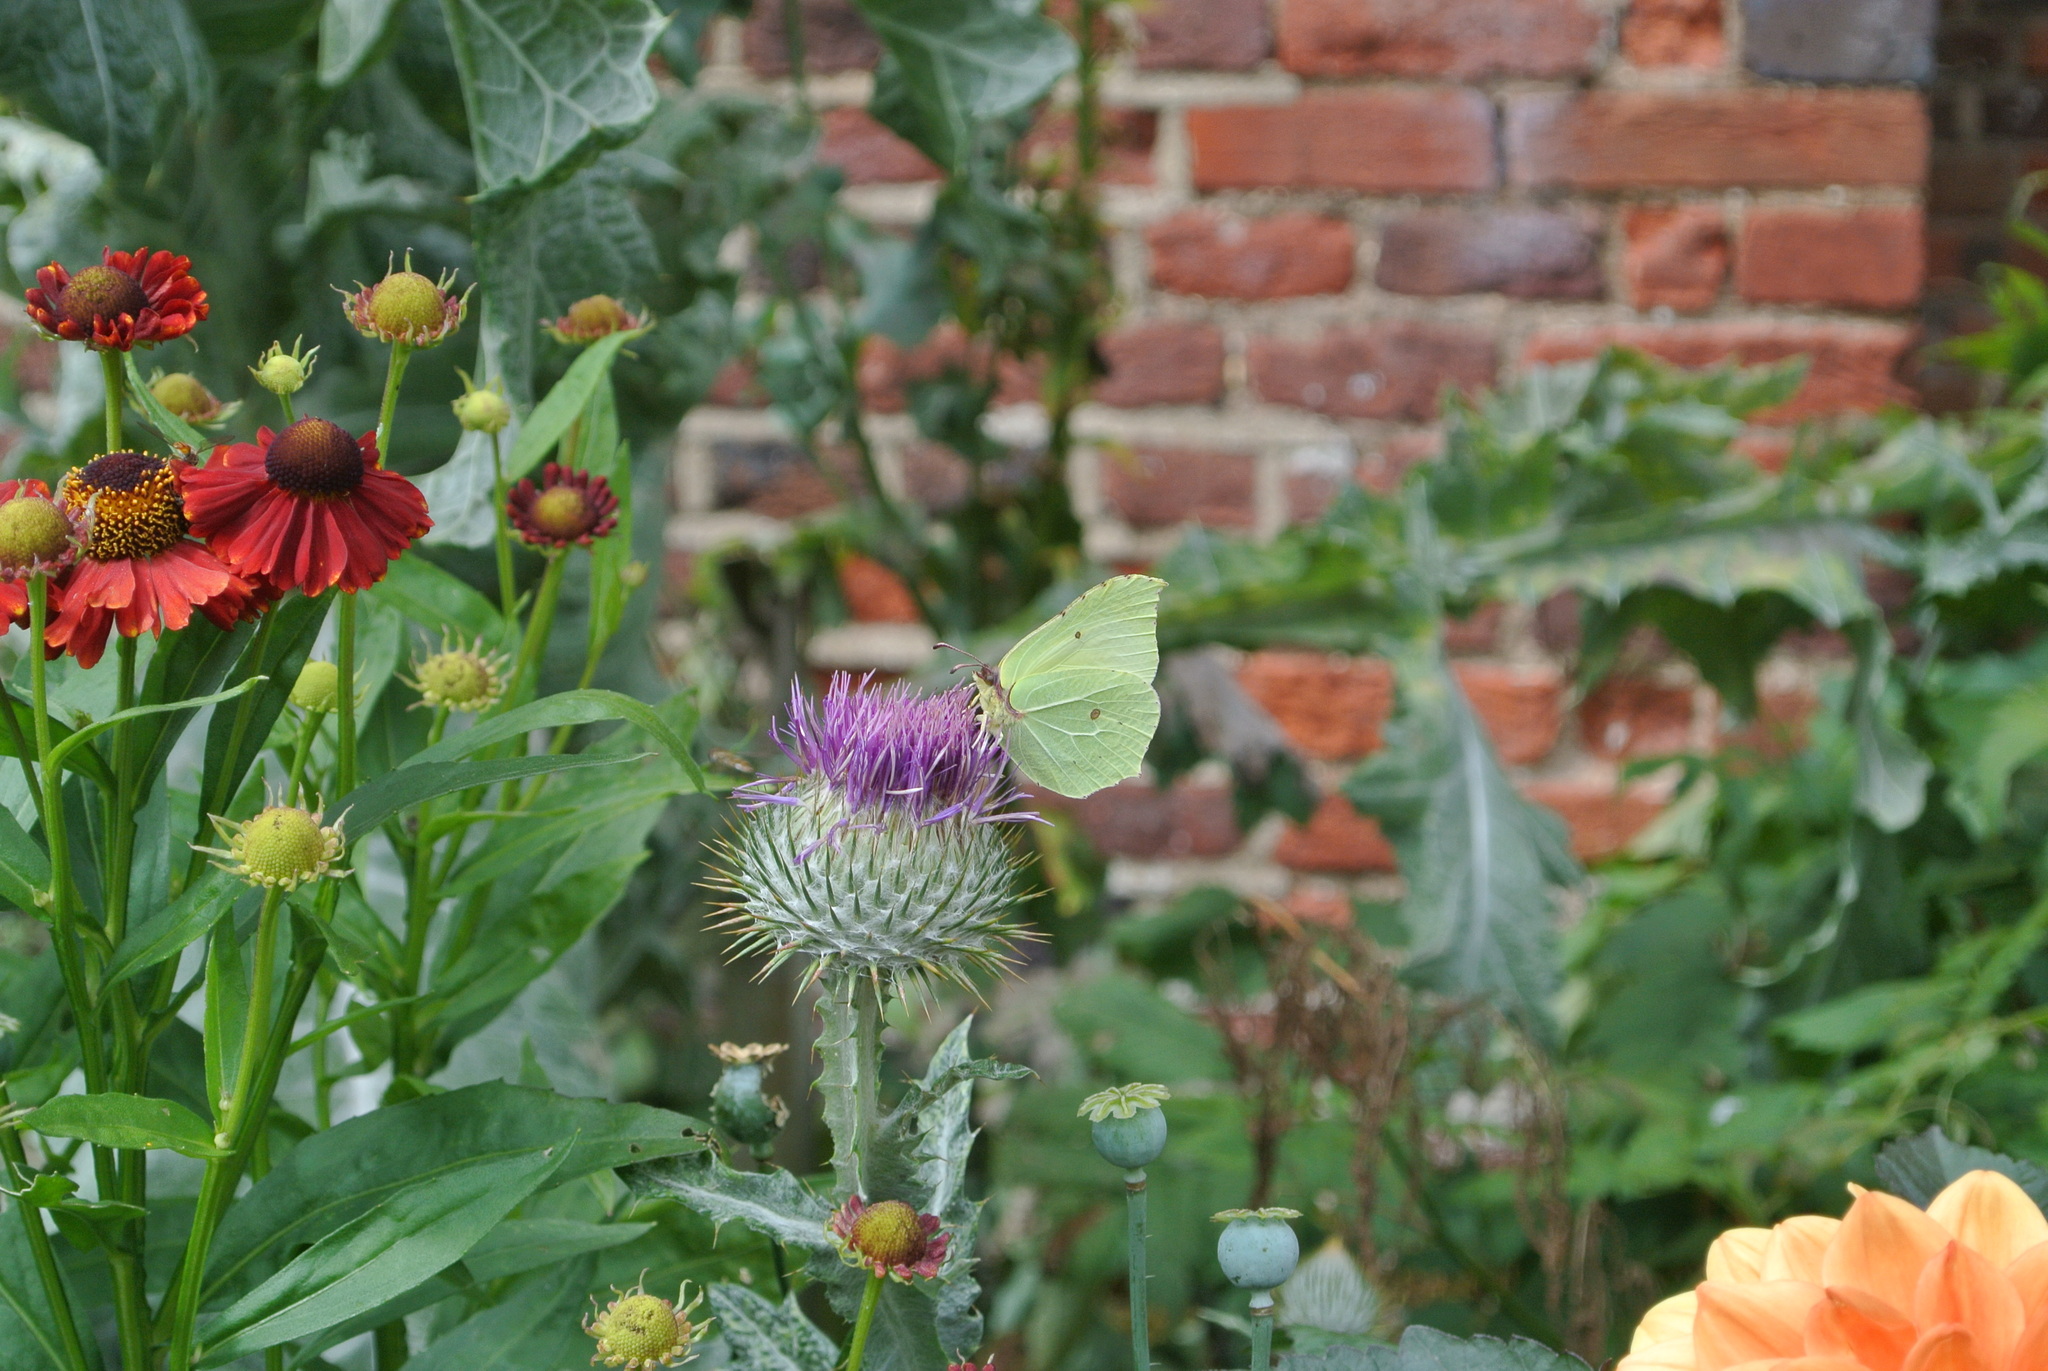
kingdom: Animalia
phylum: Arthropoda
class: Insecta
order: Lepidoptera
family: Pieridae
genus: Gonepteryx
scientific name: Gonepteryx rhamni
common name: Brimstone
